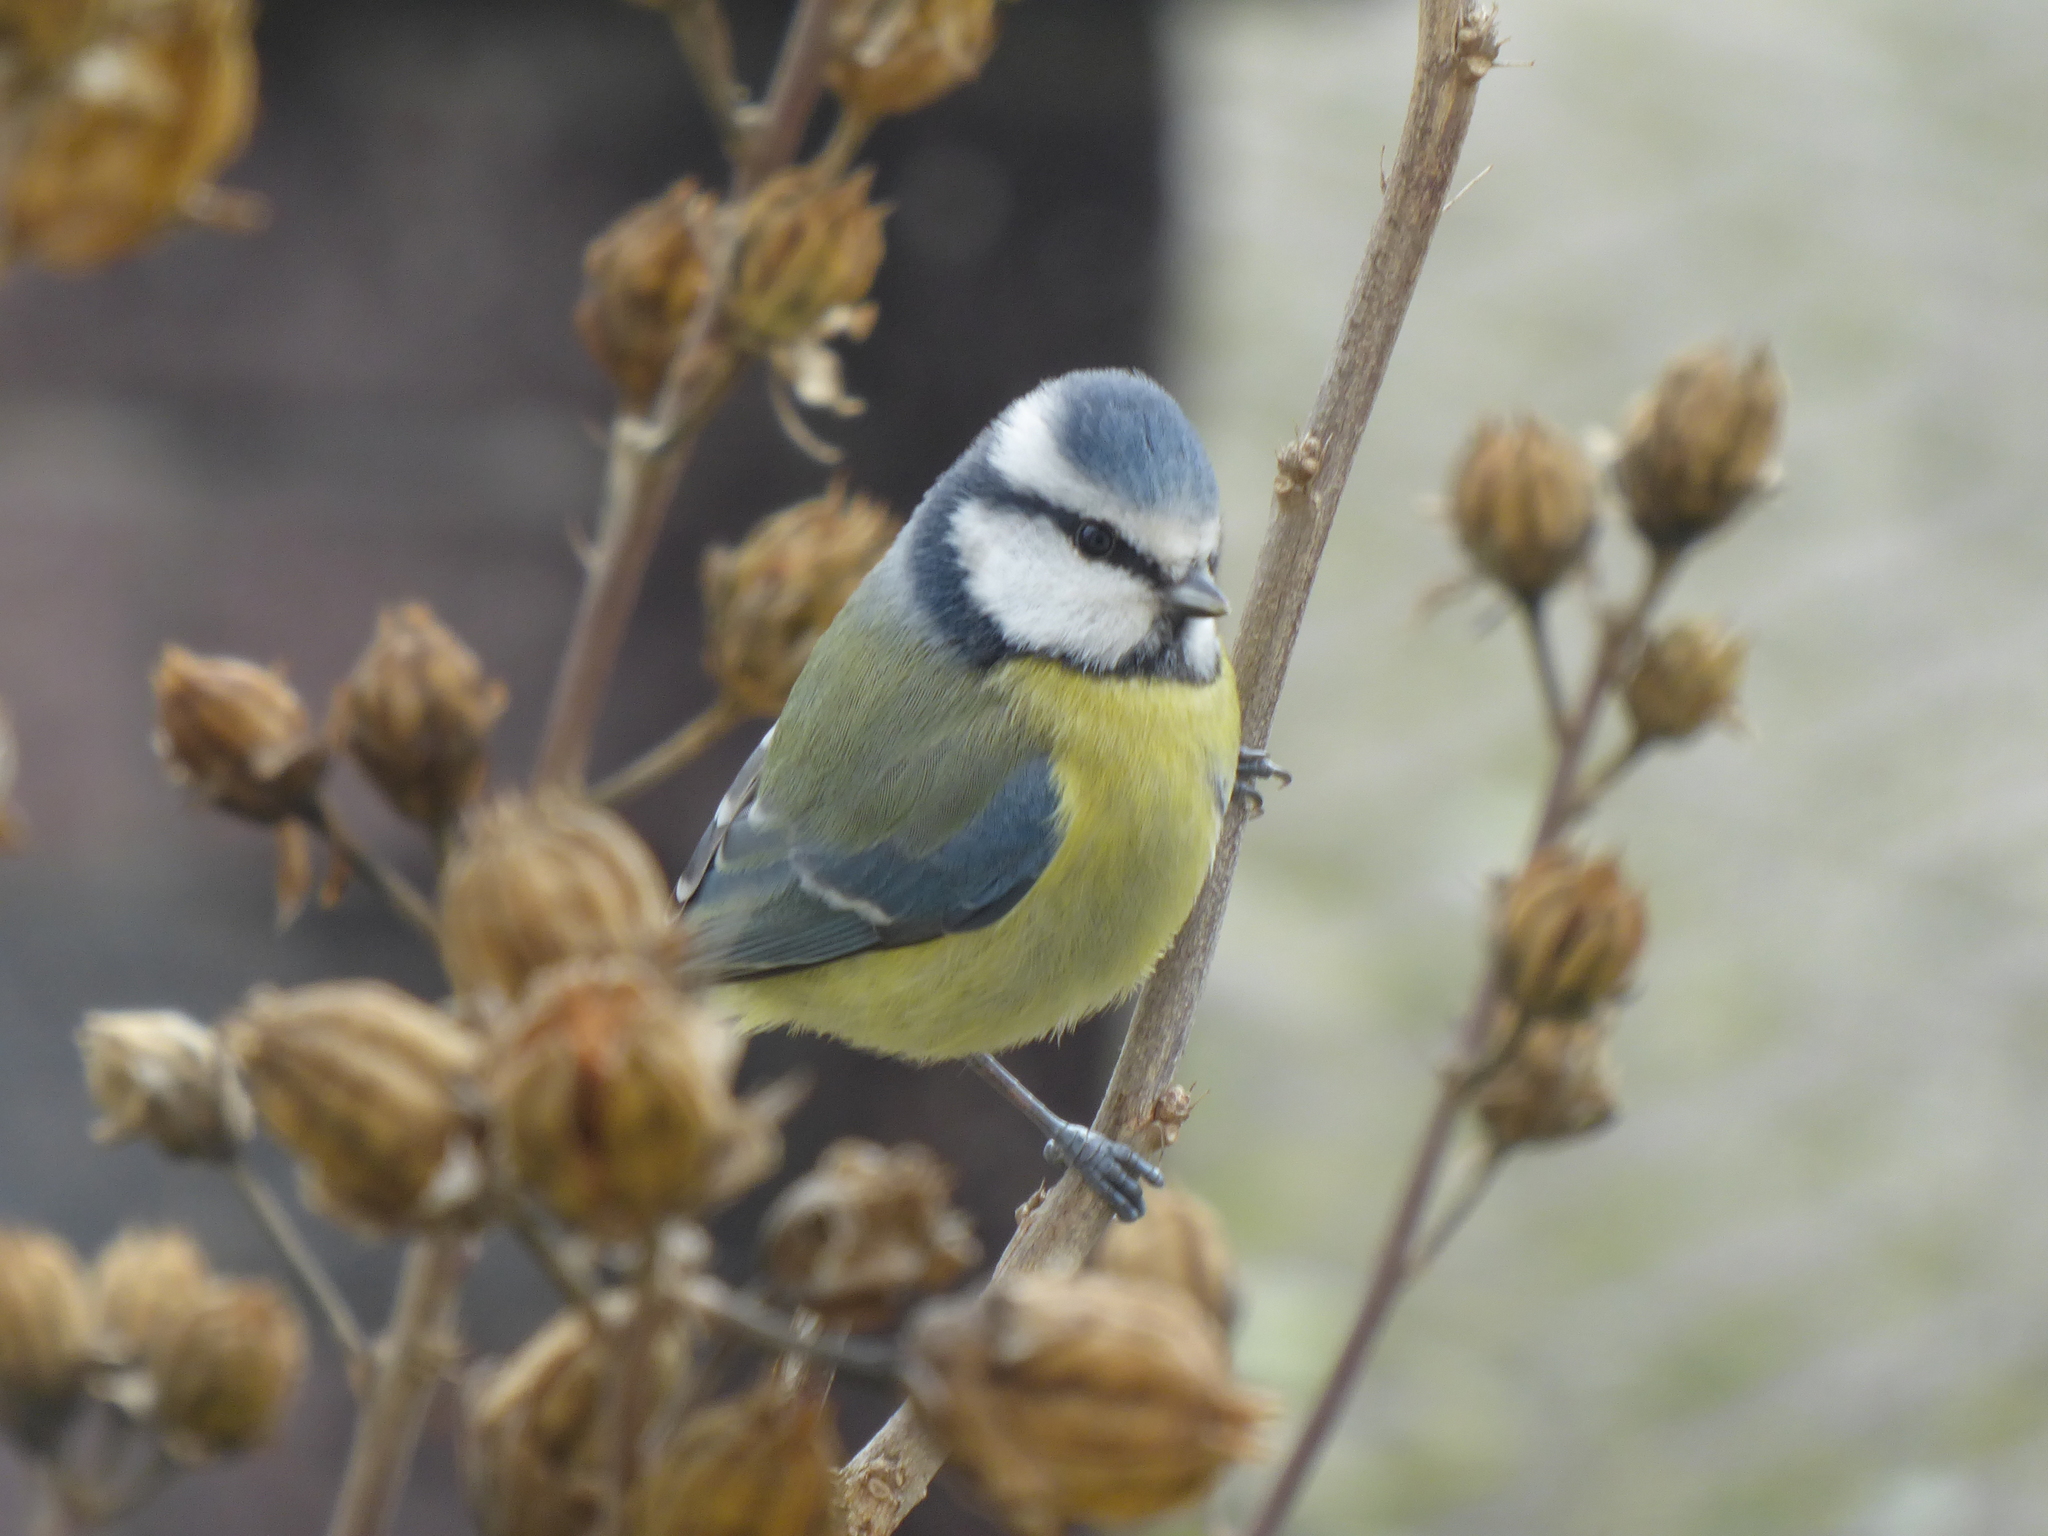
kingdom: Animalia
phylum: Chordata
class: Aves
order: Passeriformes
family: Paridae
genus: Cyanistes
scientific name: Cyanistes caeruleus
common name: Eurasian blue tit
